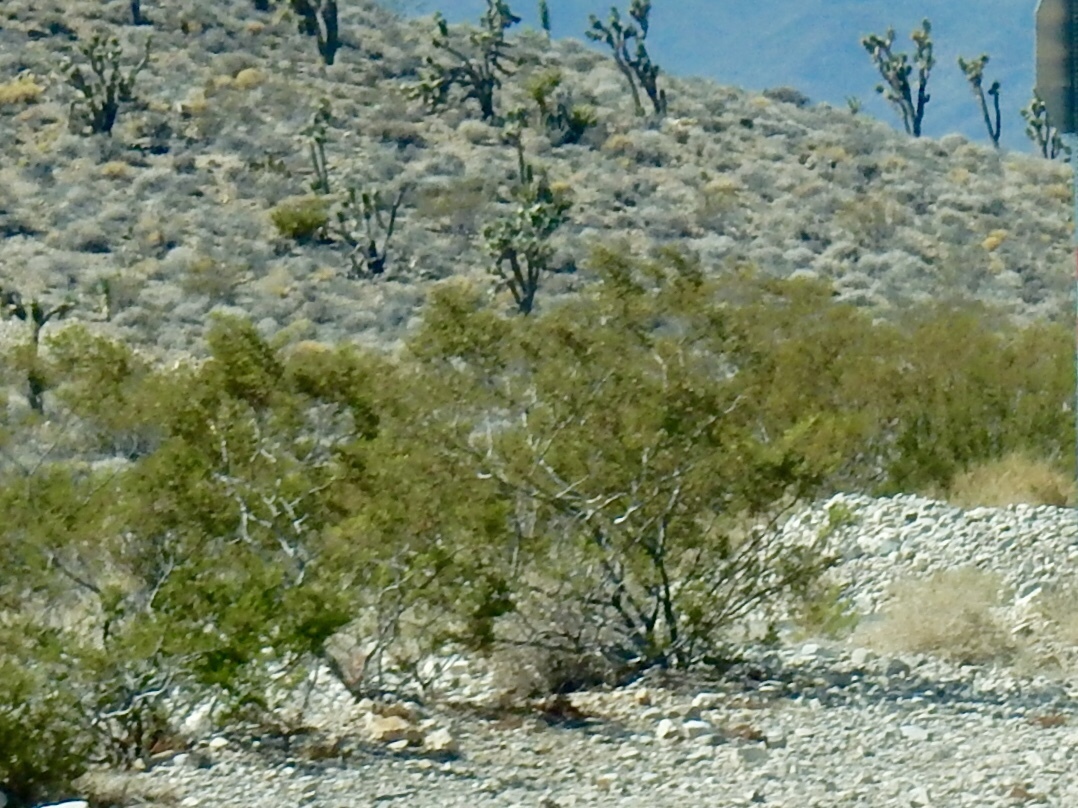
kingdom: Plantae
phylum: Tracheophyta
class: Magnoliopsida
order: Zygophyllales
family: Zygophyllaceae
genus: Larrea
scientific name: Larrea tridentata
